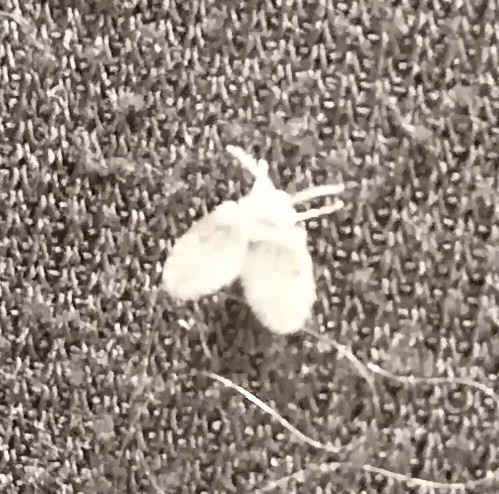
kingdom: Animalia
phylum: Arthropoda
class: Insecta
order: Diptera
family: Psychodidae
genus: Clogmia
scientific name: Clogmia albipunctatus
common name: White-spotted moth fly
